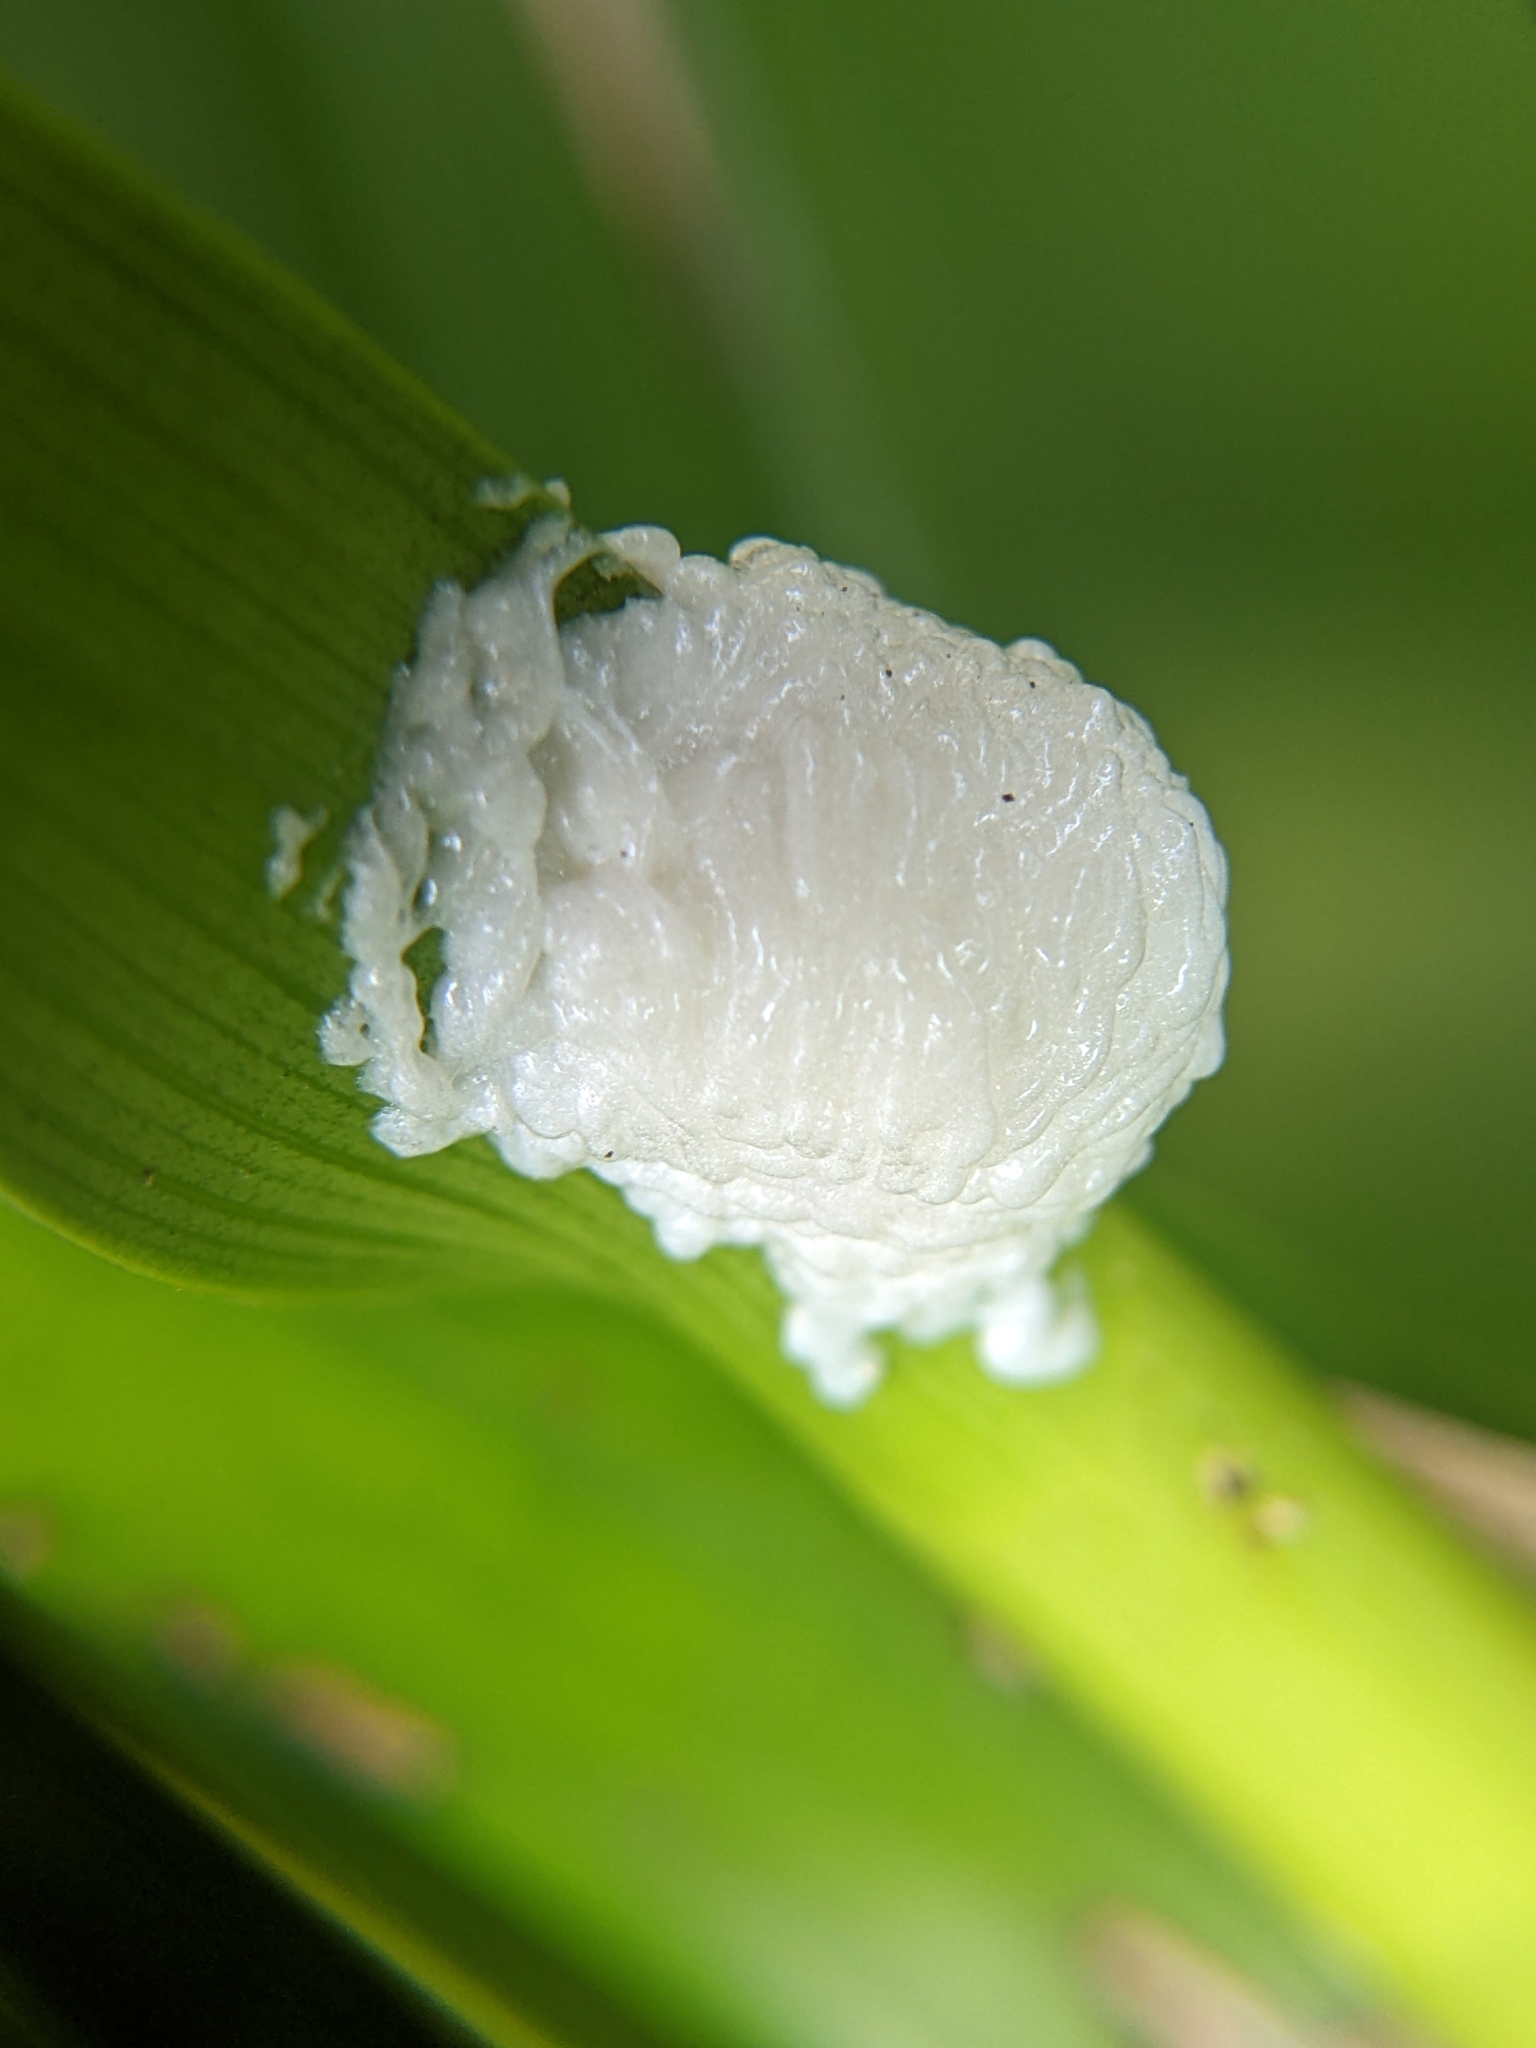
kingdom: Animalia
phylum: Arthropoda
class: Insecta
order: Coleoptera
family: Chrysomelidae
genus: Baliosus
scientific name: Baliosus pectoralis
